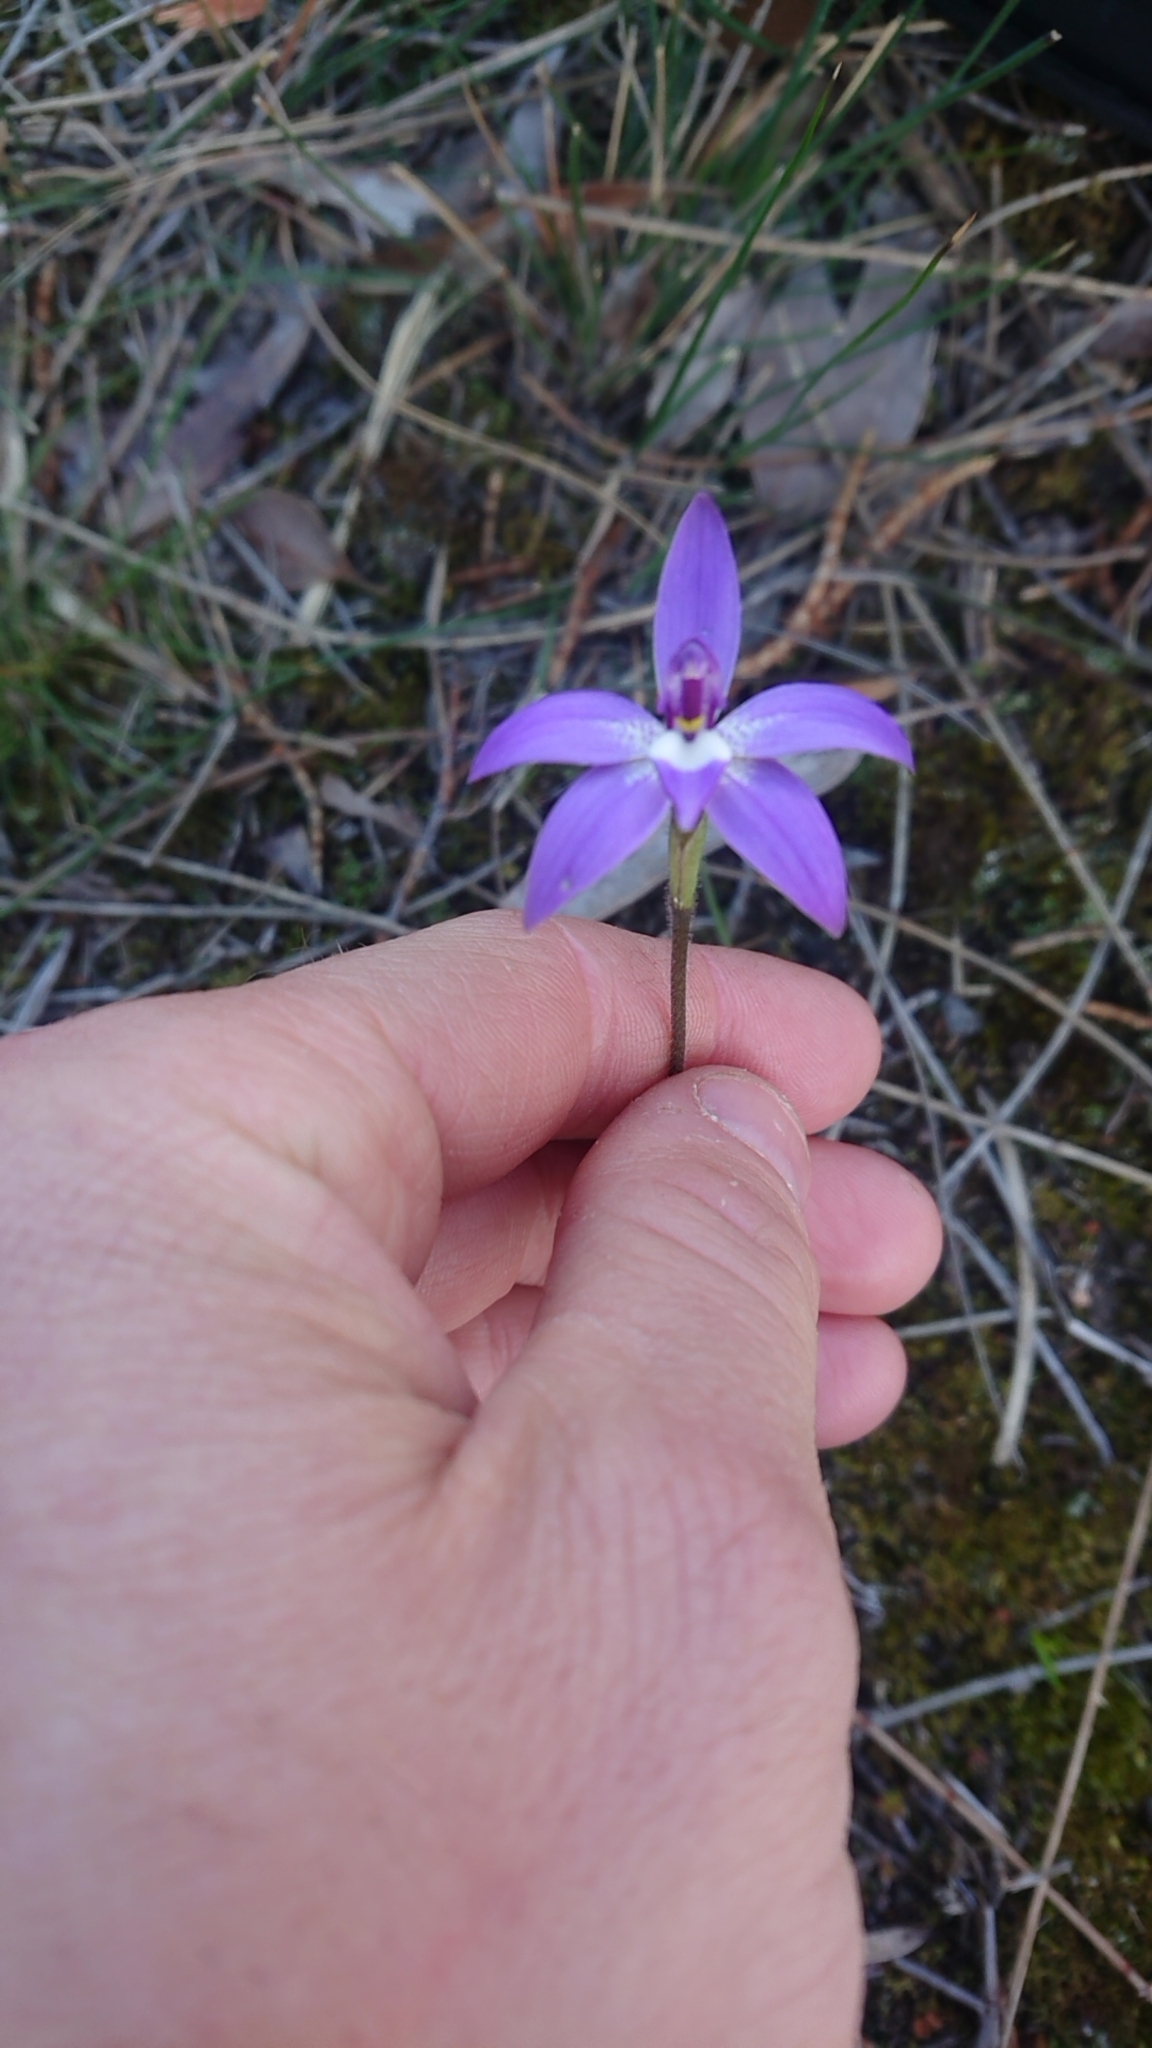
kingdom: Plantae
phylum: Tracheophyta
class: Liliopsida
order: Asparagales
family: Orchidaceae
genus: Caladenia
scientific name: Caladenia major
